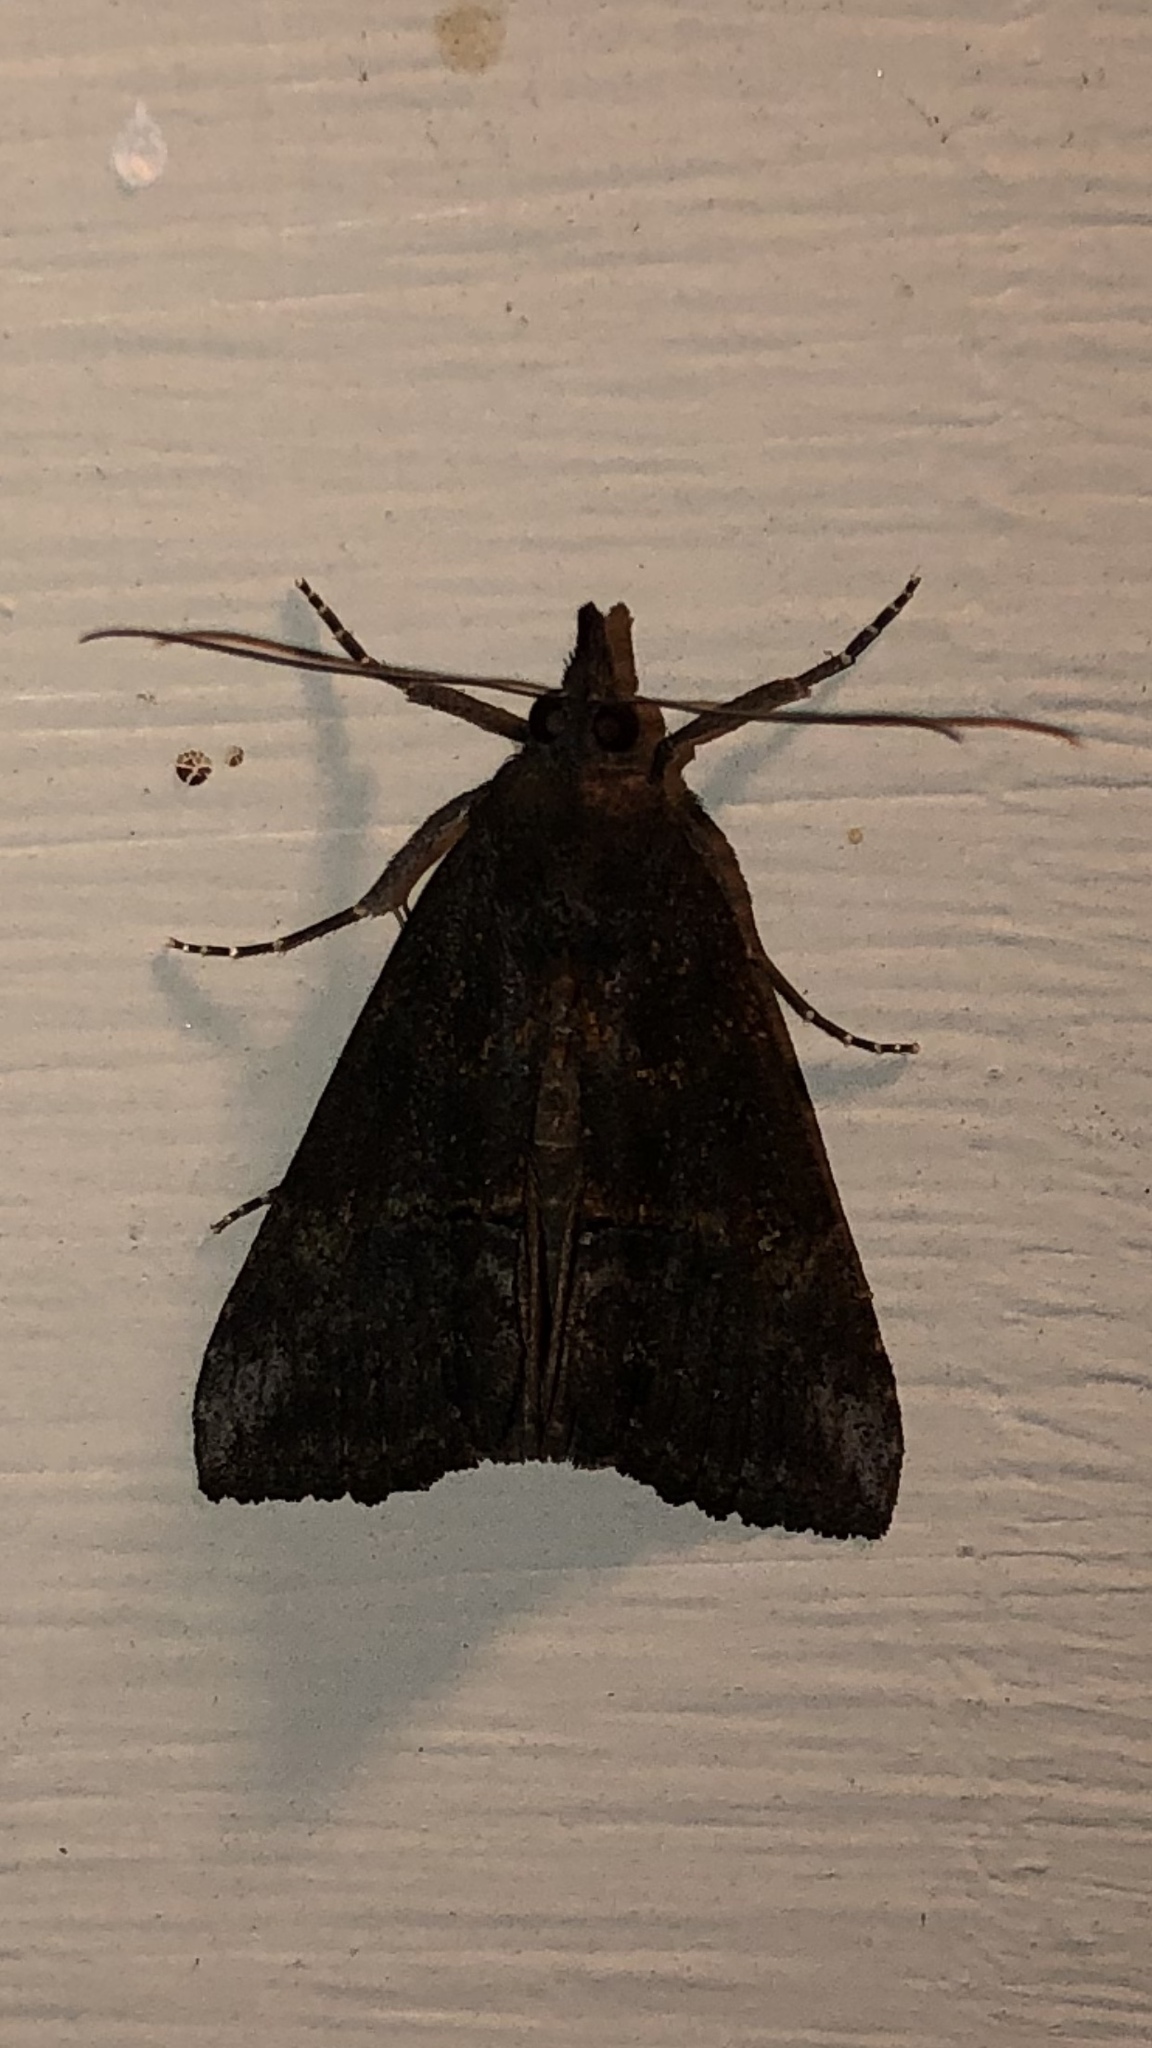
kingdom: Animalia
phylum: Arthropoda
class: Insecta
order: Lepidoptera
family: Erebidae
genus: Hypena
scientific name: Hypena scabra
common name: Green cloverworm
